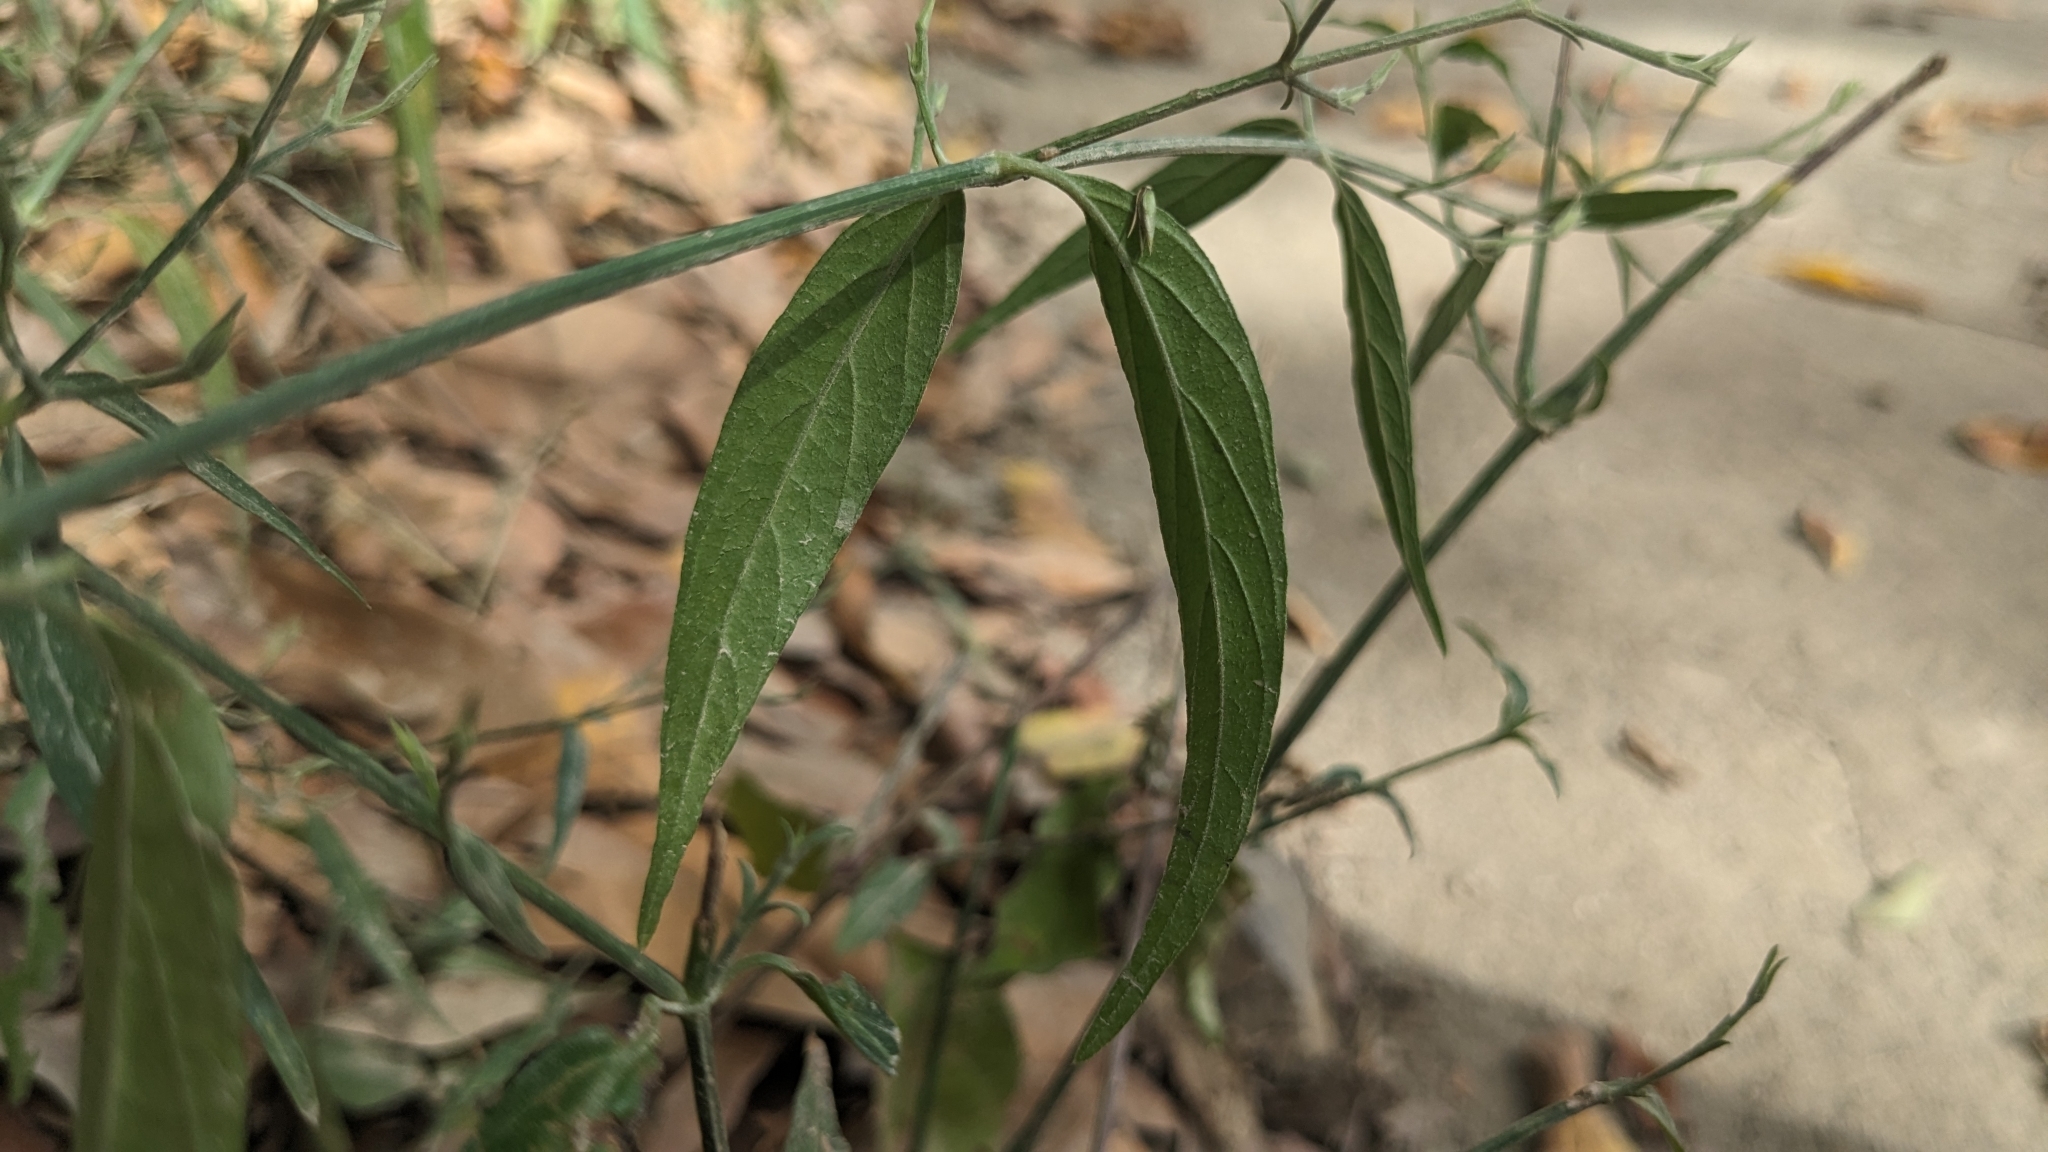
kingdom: Plantae
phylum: Tracheophyta
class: Magnoliopsida
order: Lamiales
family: Acanthaceae
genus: Hypoestes
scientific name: Hypoestes cumingiana
